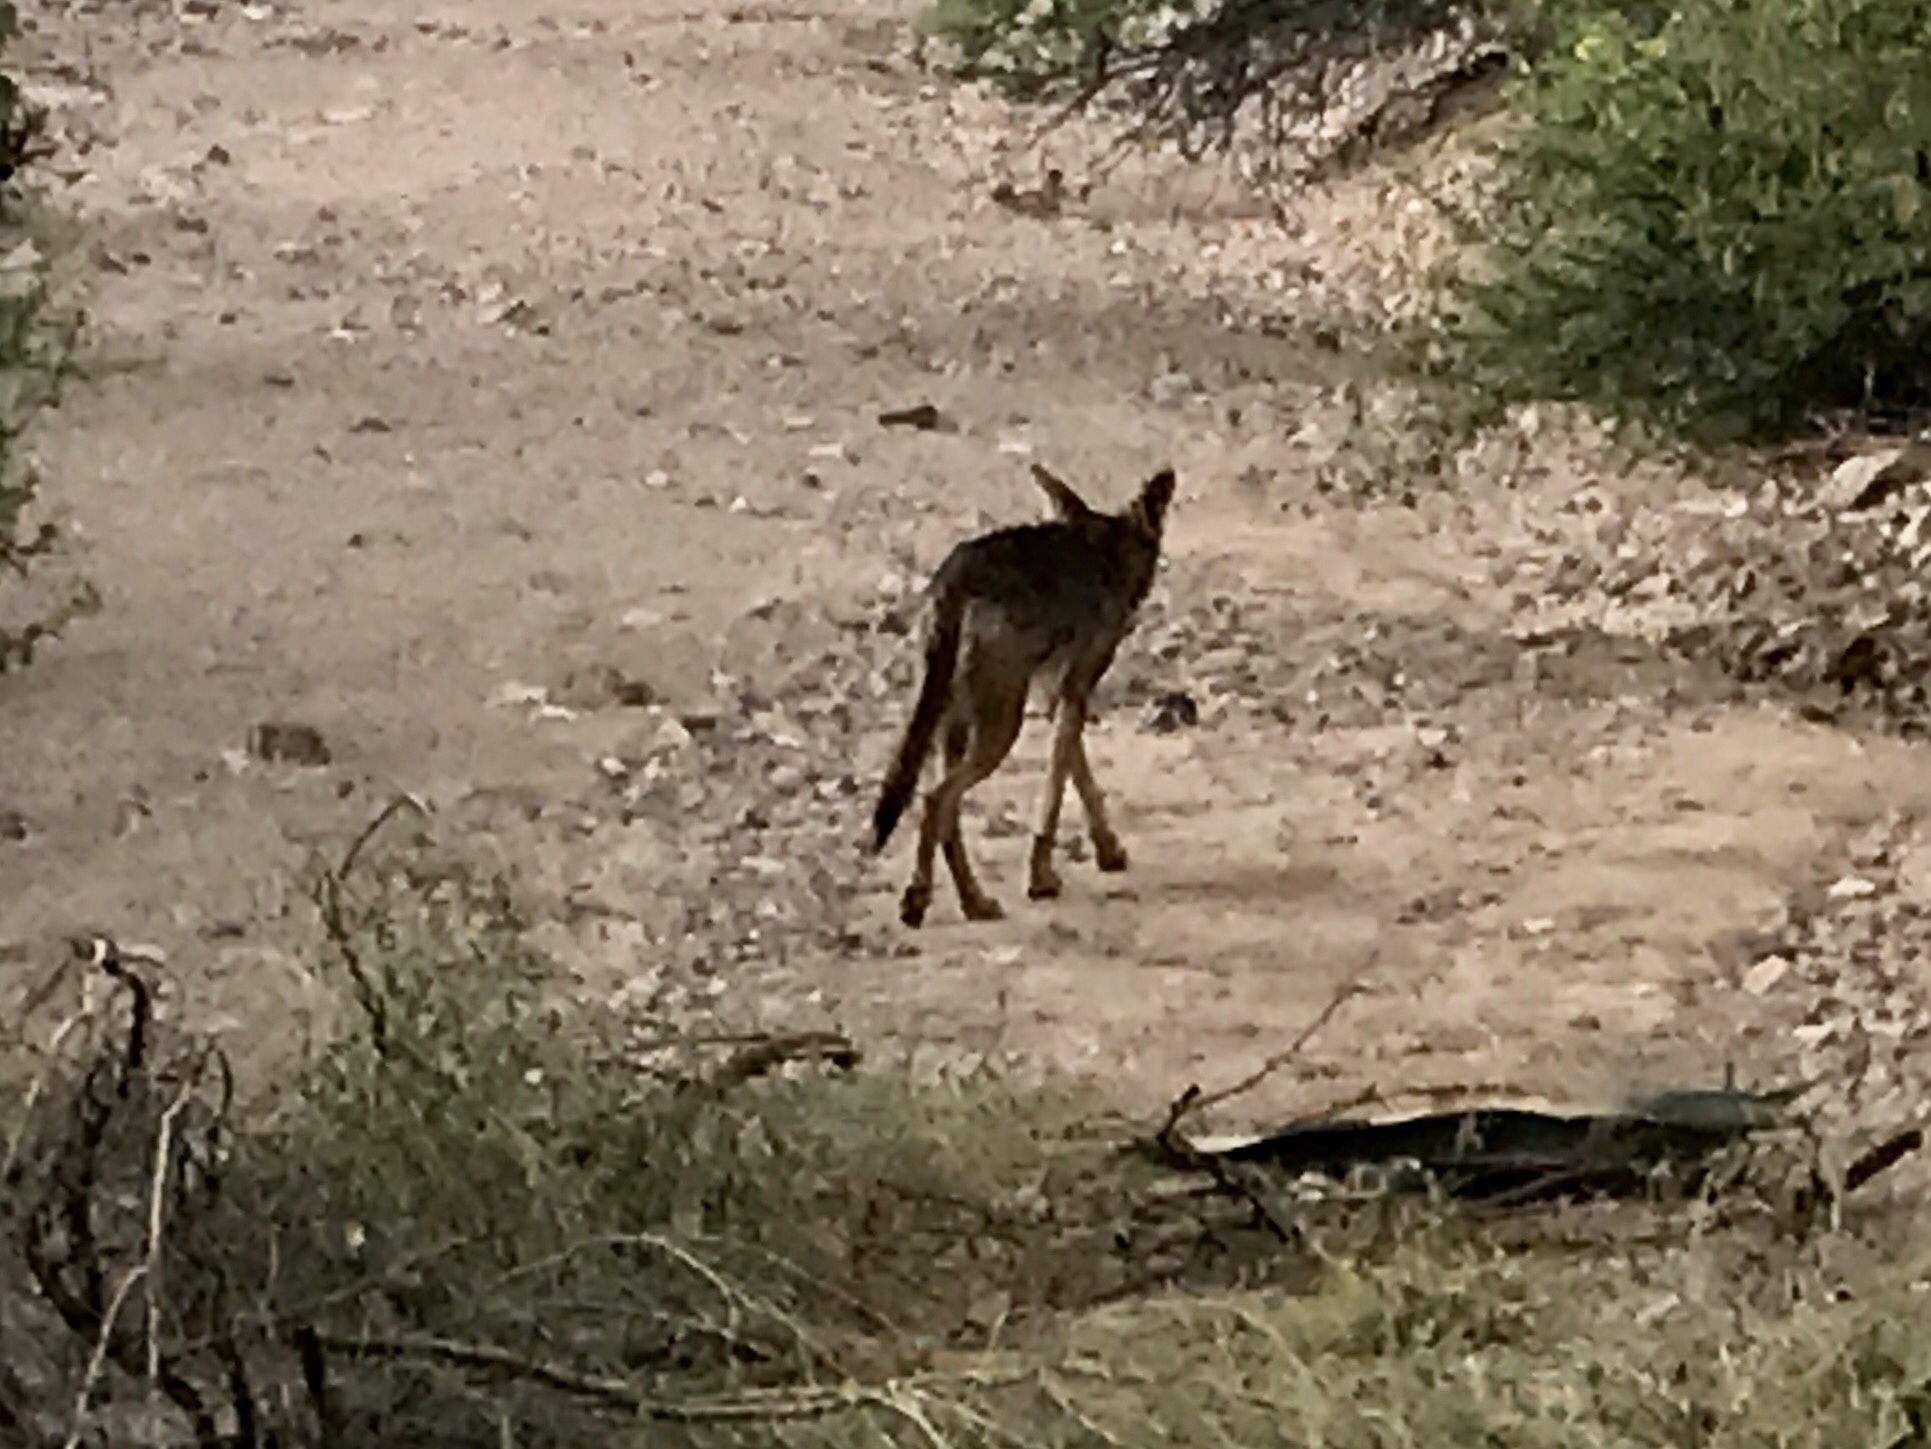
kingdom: Animalia
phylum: Chordata
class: Mammalia
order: Carnivora
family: Canidae
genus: Canis
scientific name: Canis latrans
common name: Coyote
